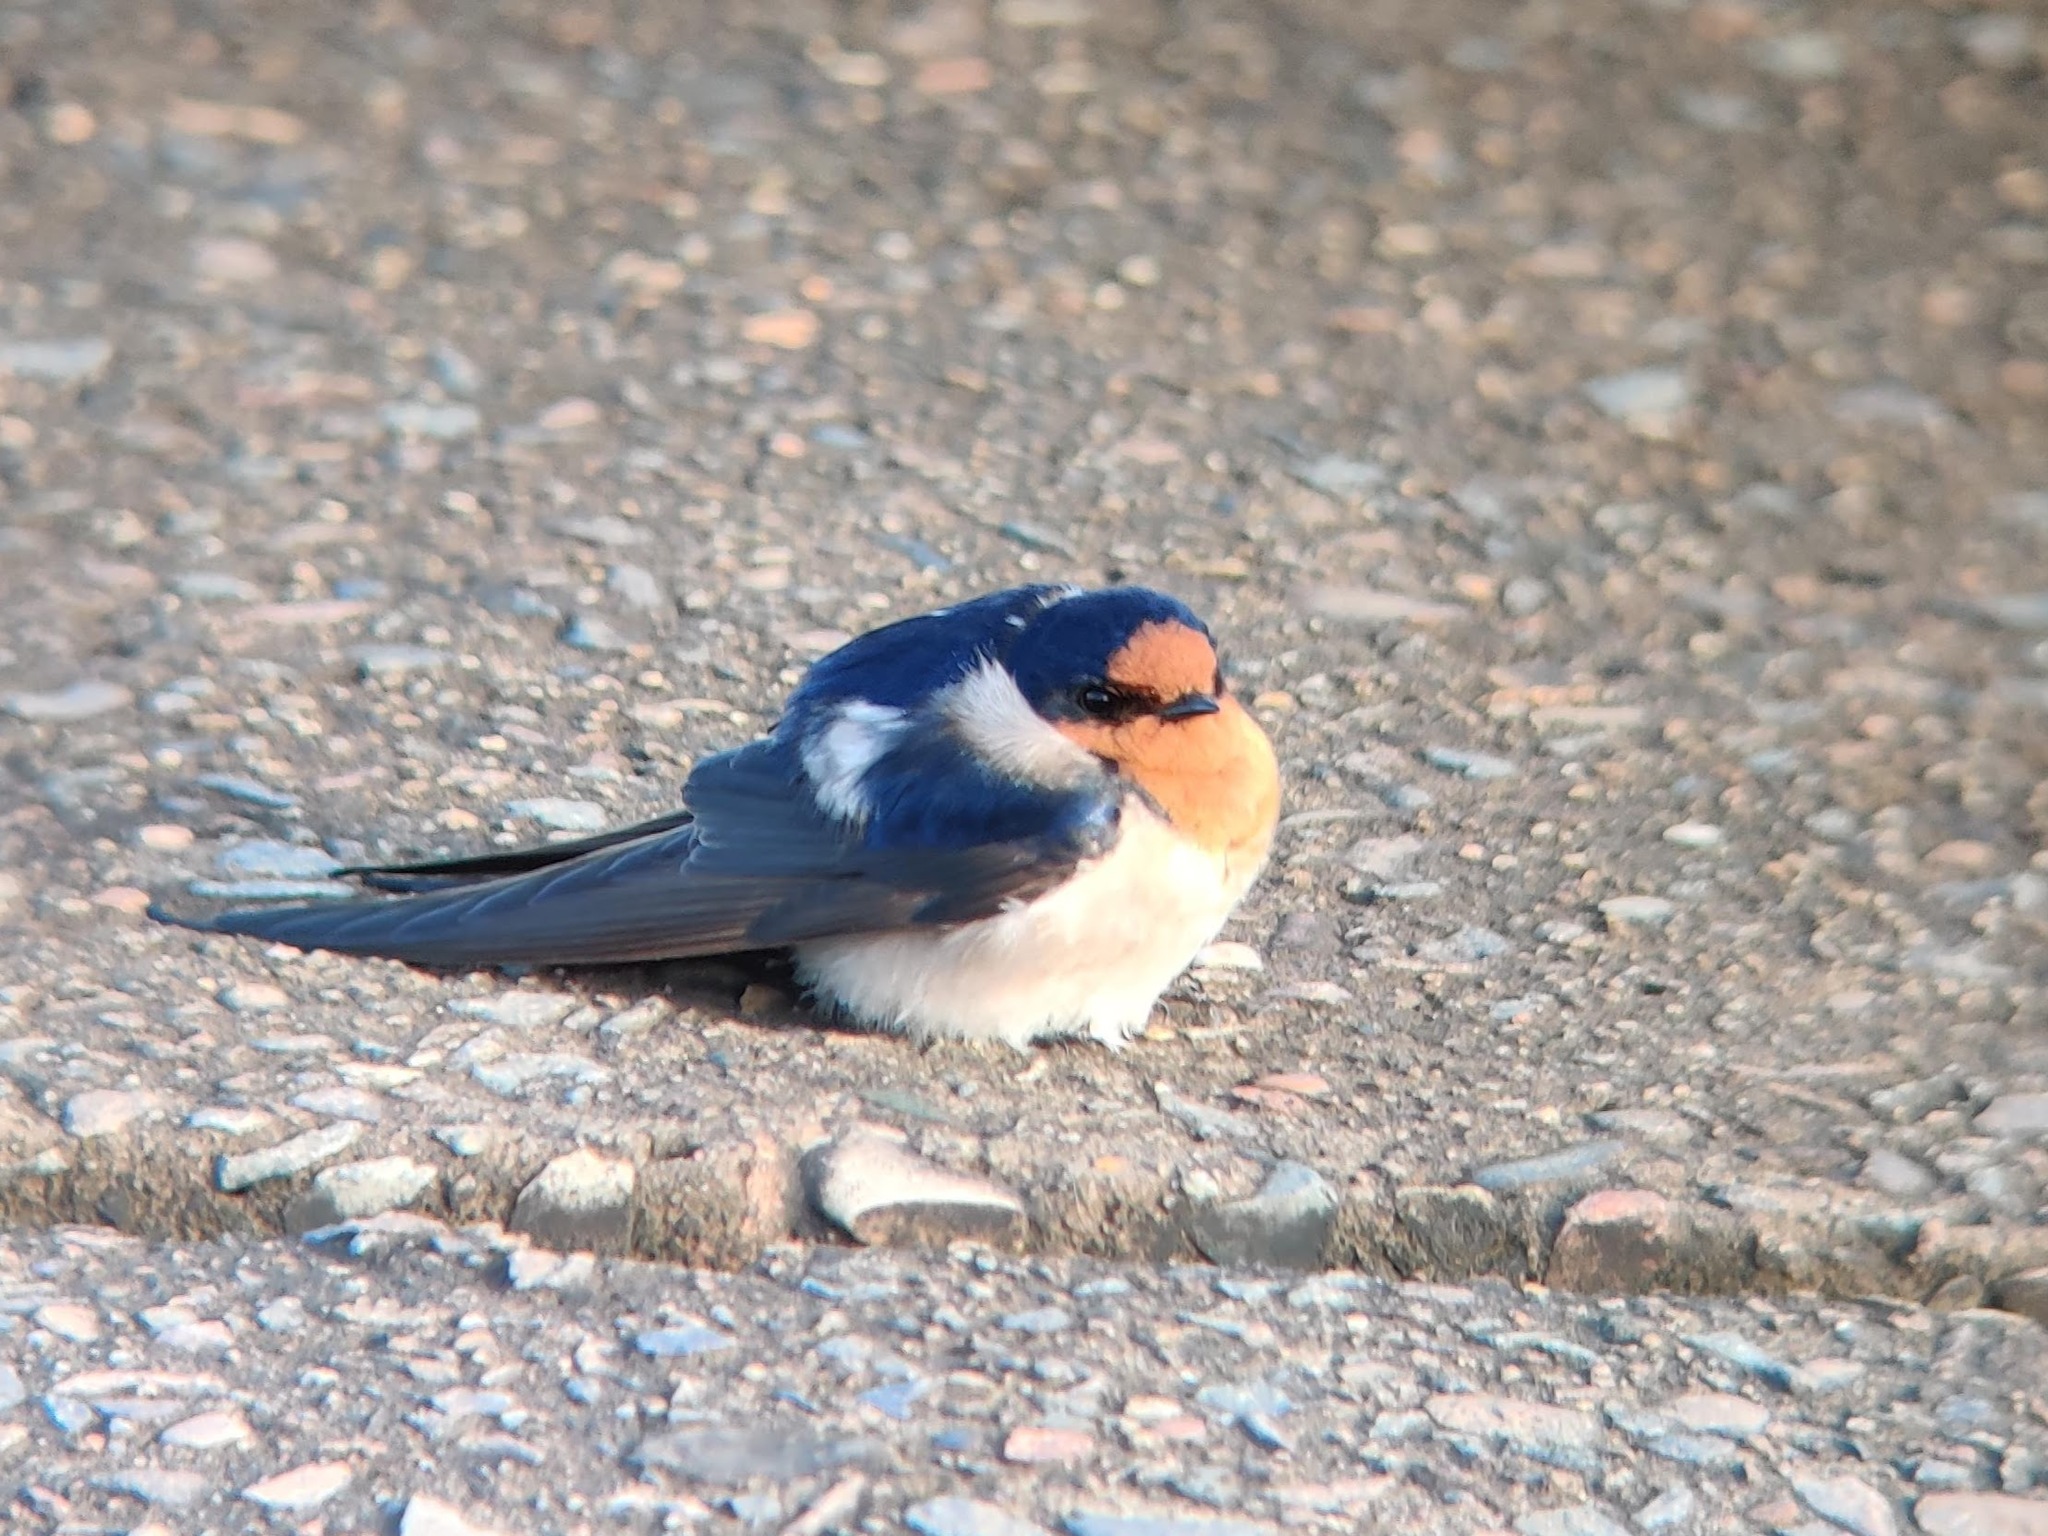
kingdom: Animalia
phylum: Chordata
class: Aves
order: Passeriformes
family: Hirundinidae
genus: Hirundo
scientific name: Hirundo neoxena
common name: Welcome swallow
